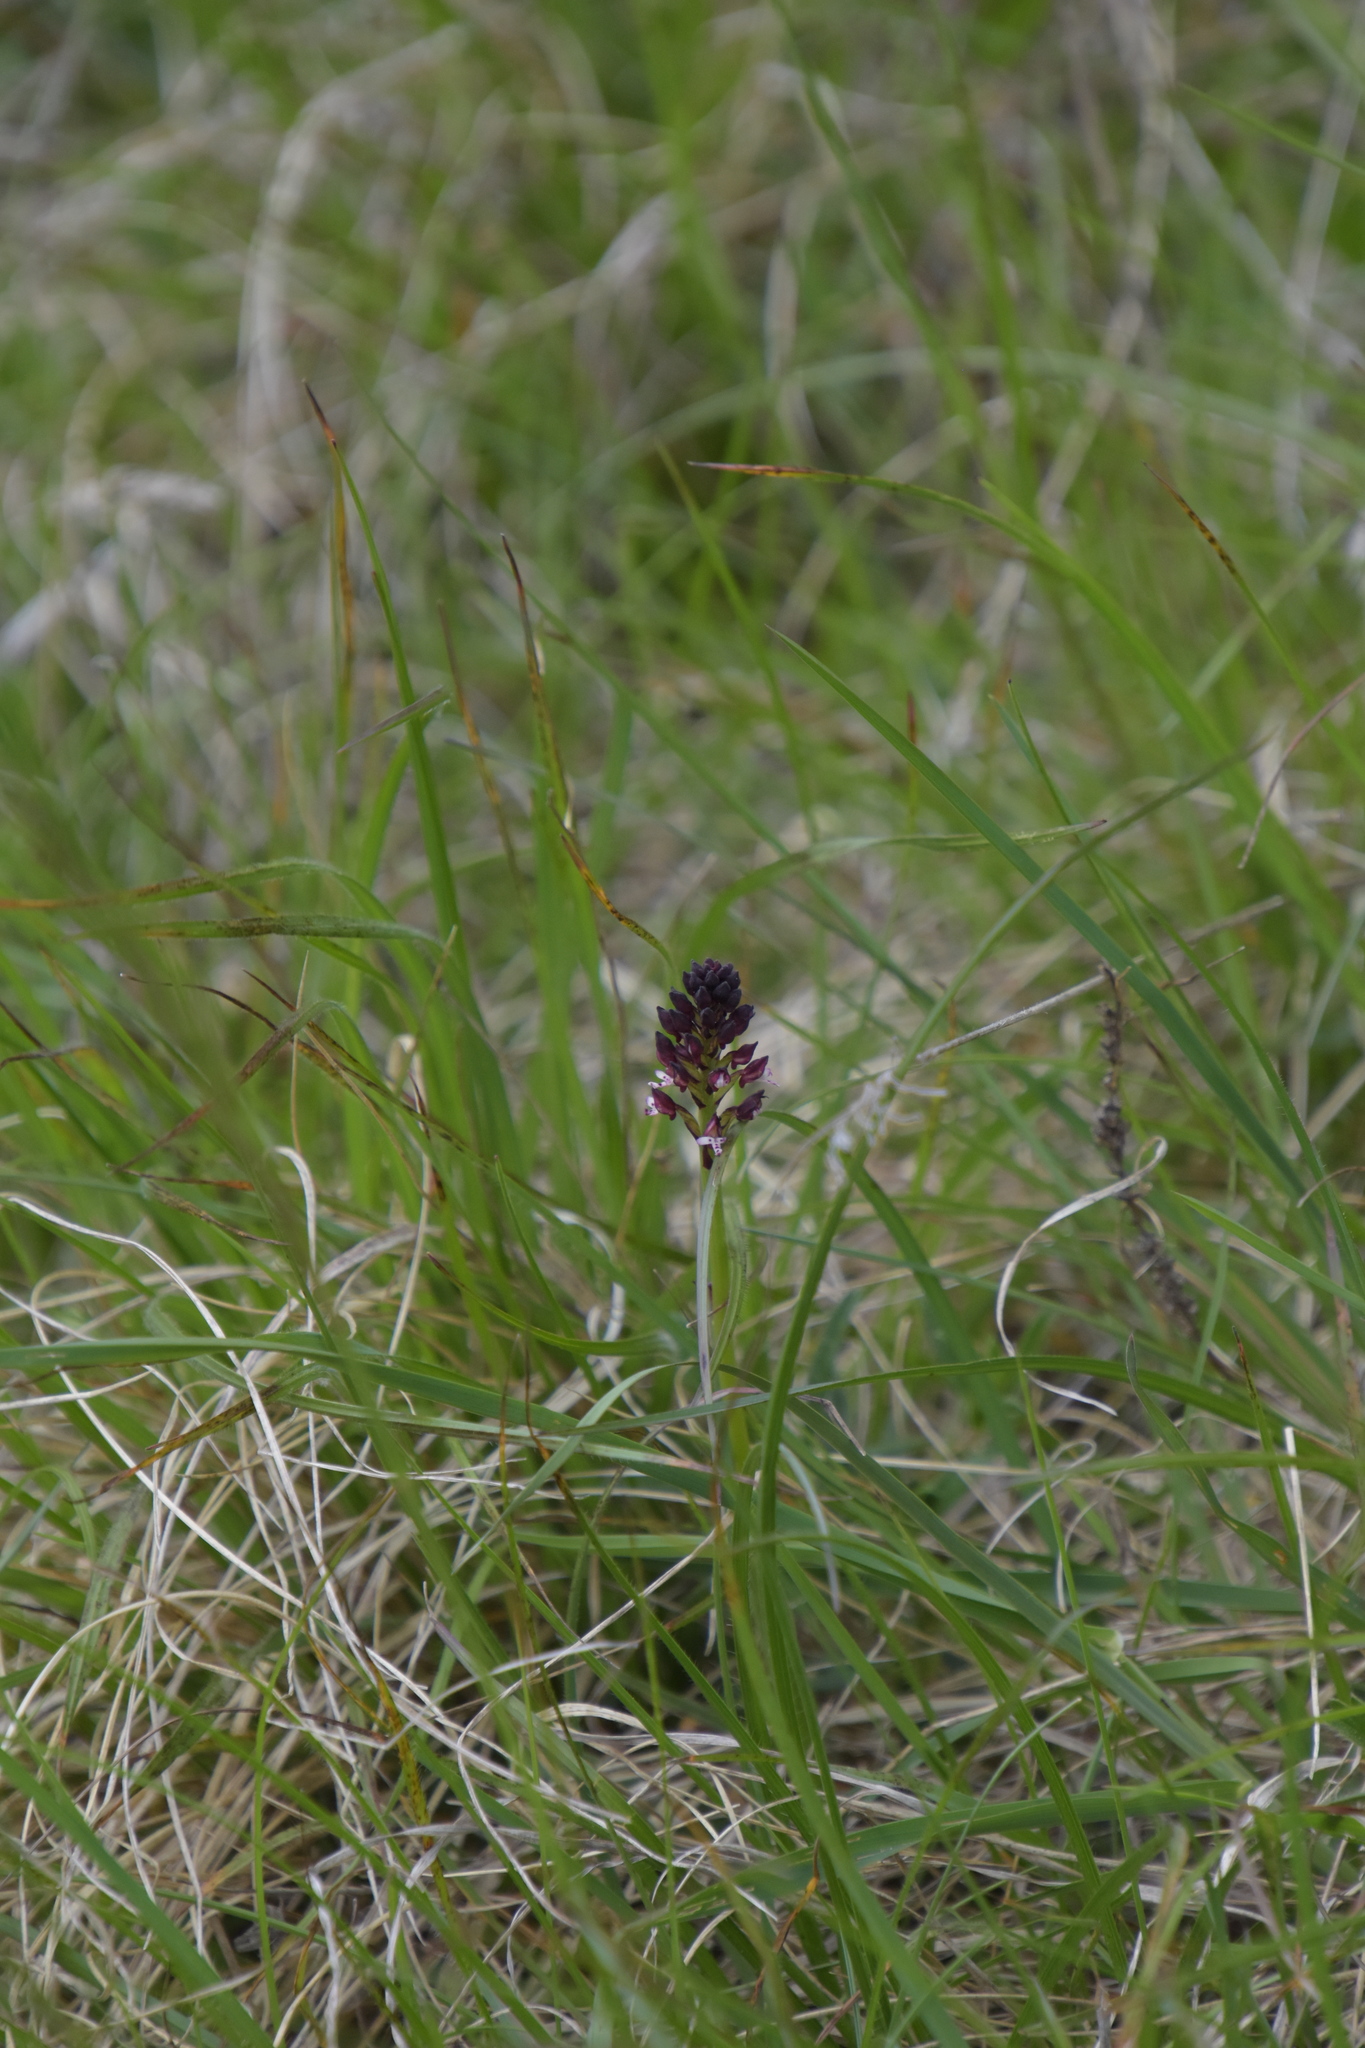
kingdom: Plantae
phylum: Tracheophyta
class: Liliopsida
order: Asparagales
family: Orchidaceae
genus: Neotinea
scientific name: Neotinea ustulata
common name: Burnt orchid
